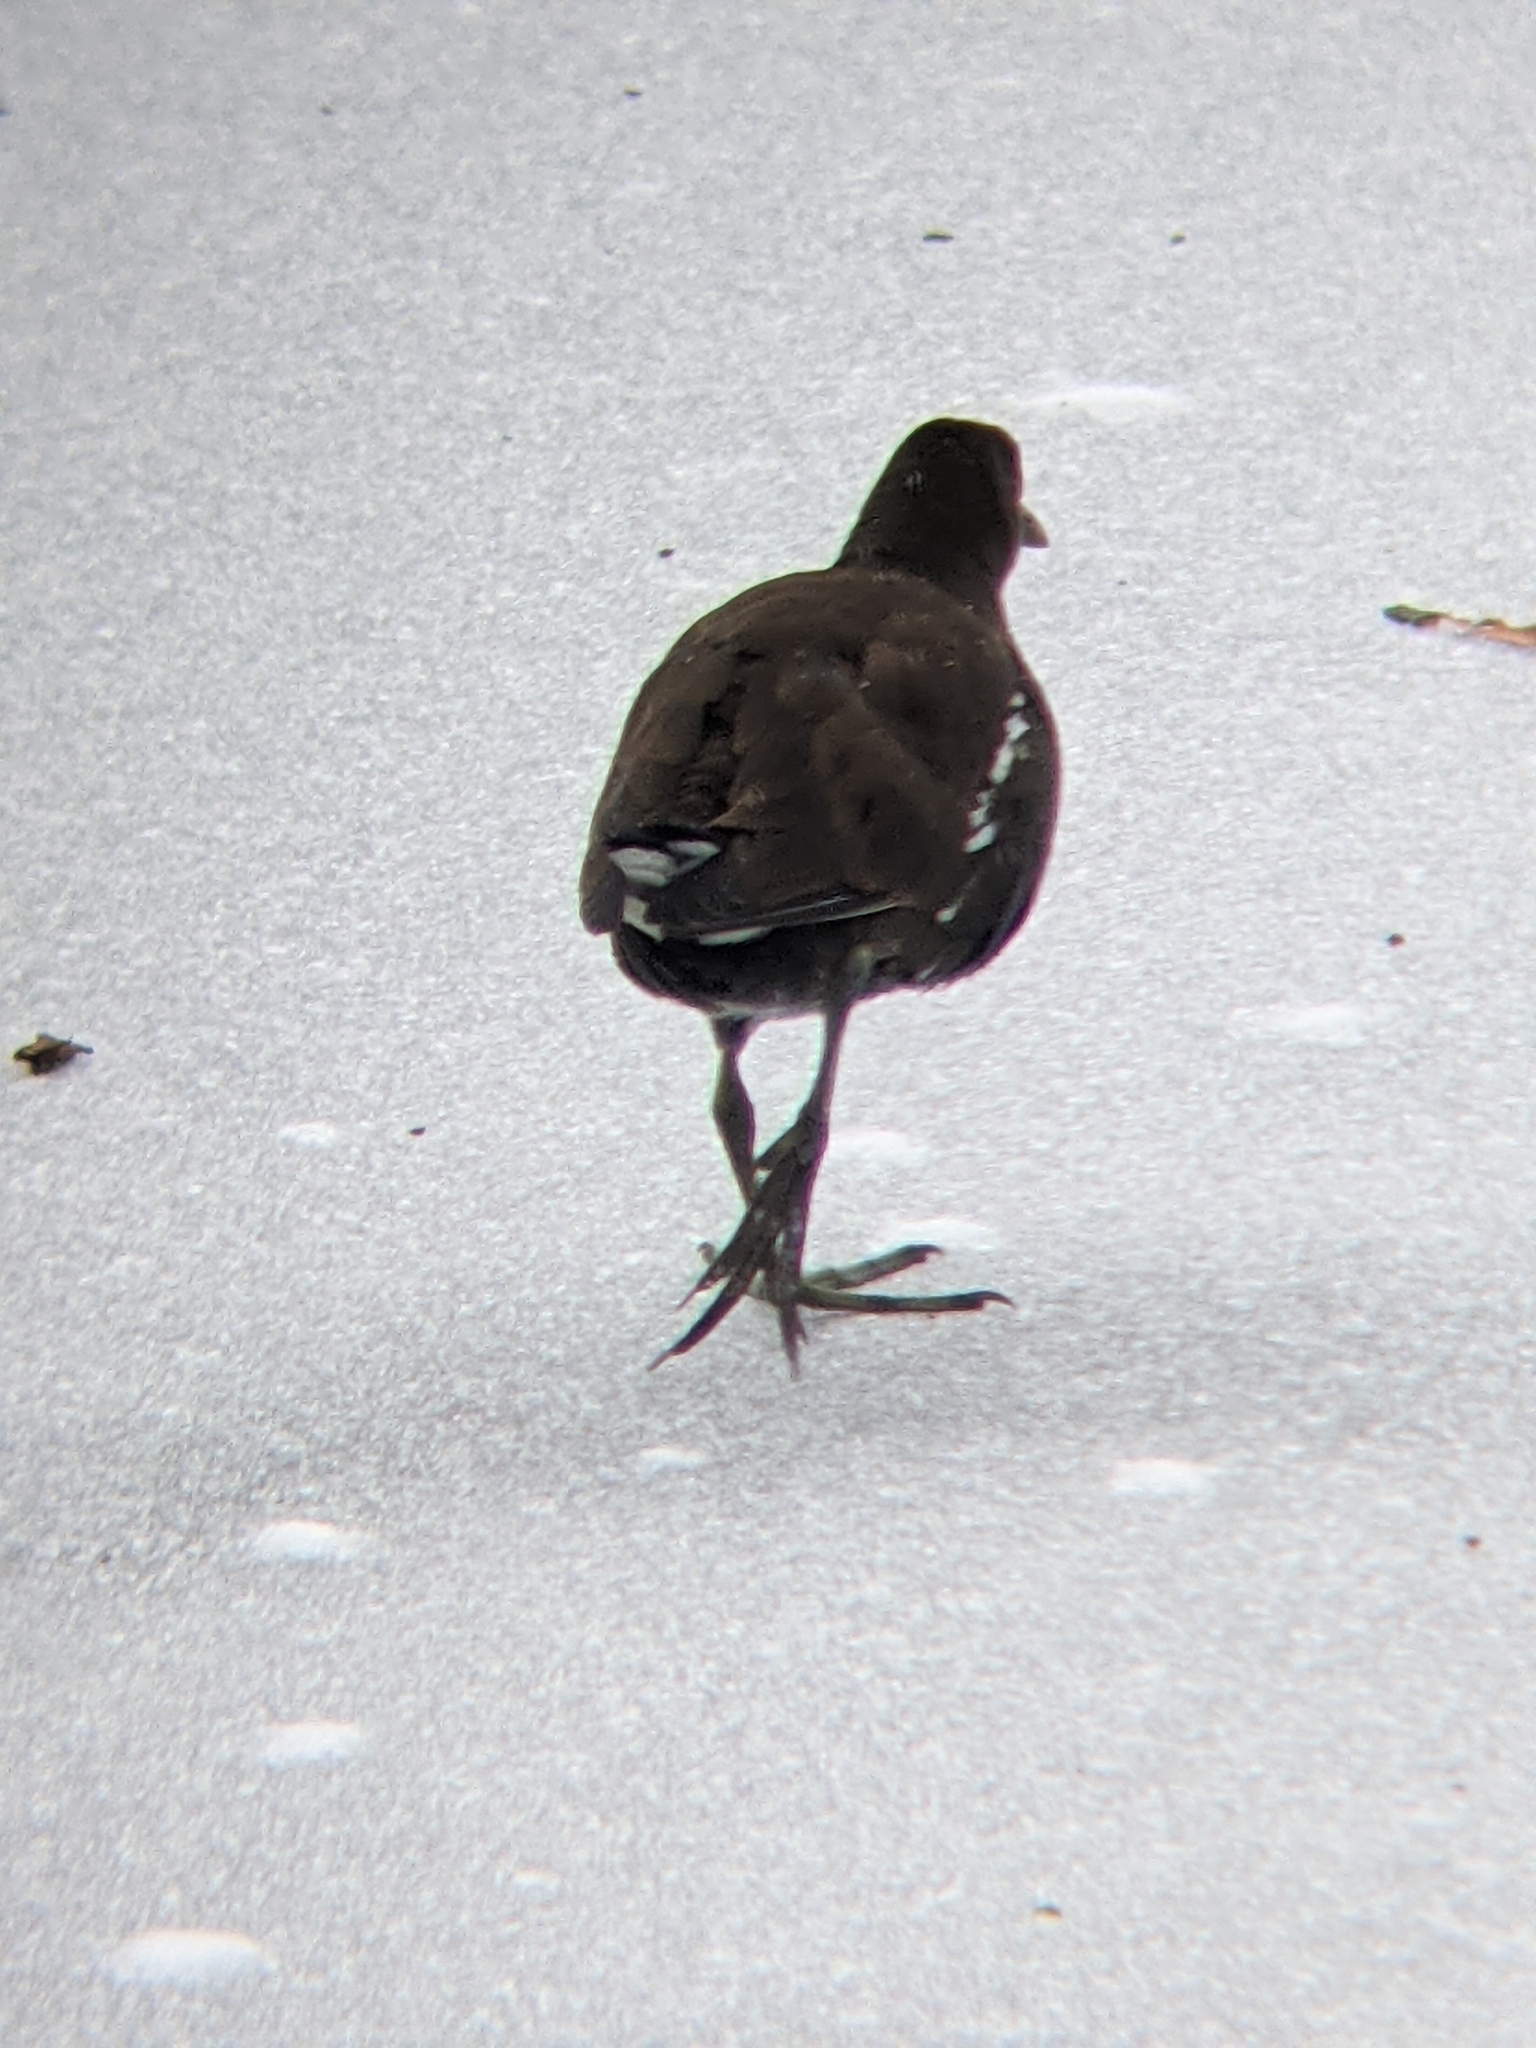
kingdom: Animalia
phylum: Chordata
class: Aves
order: Gruiformes
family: Rallidae
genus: Gallinula
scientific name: Gallinula chloropus
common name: Common moorhen
